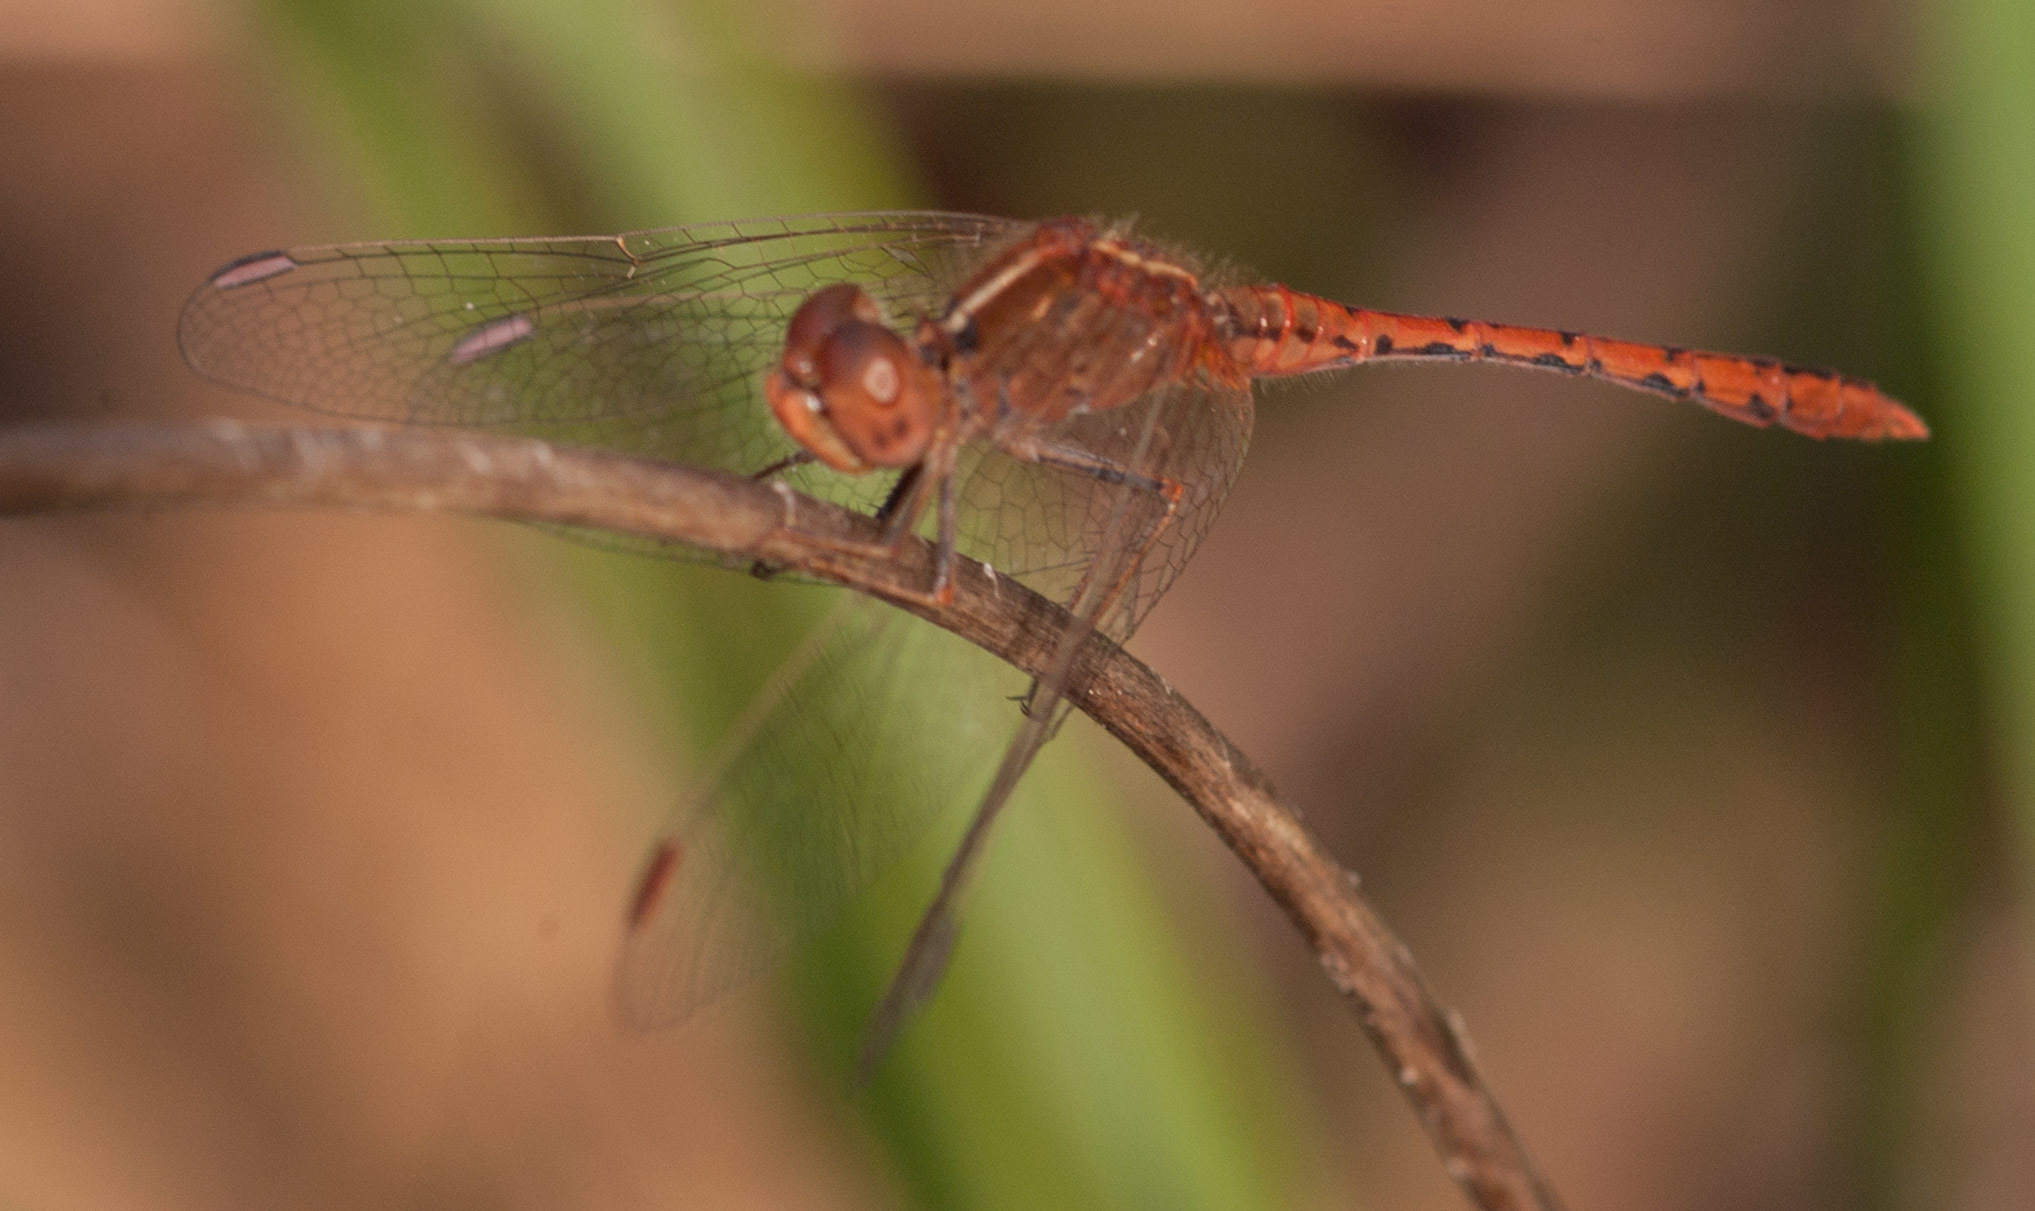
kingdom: Animalia
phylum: Arthropoda
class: Insecta
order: Odonata
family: Libellulidae
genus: Diplacodes
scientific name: Diplacodes bipunctata
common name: Red percher dragonfly
